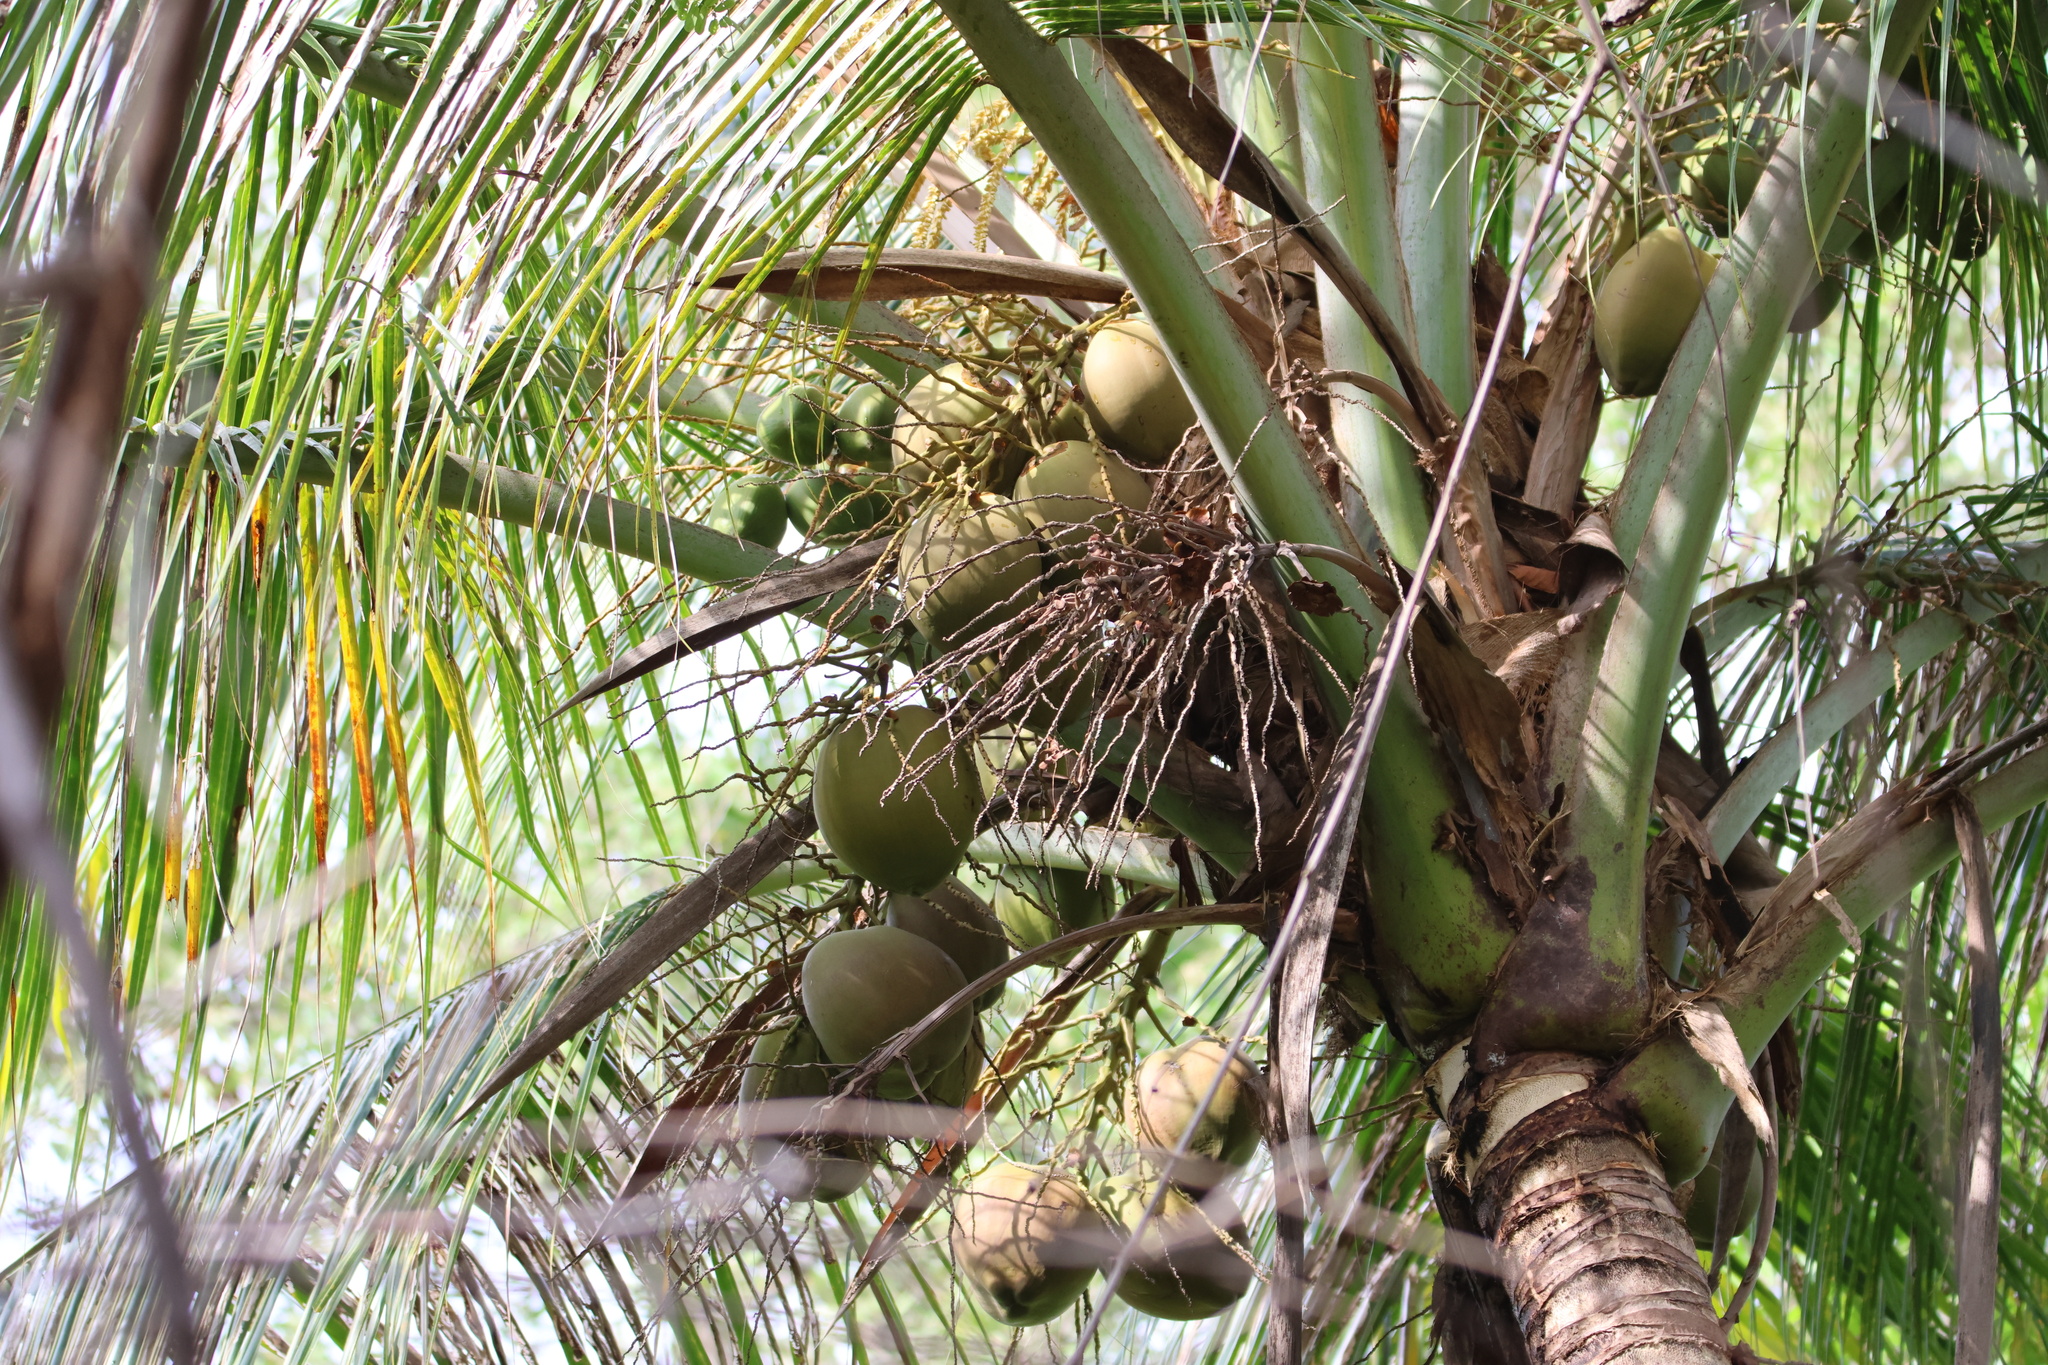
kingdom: Plantae
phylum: Tracheophyta
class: Liliopsida
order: Arecales
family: Arecaceae
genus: Cocos
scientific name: Cocos nucifera
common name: Coconut palm
